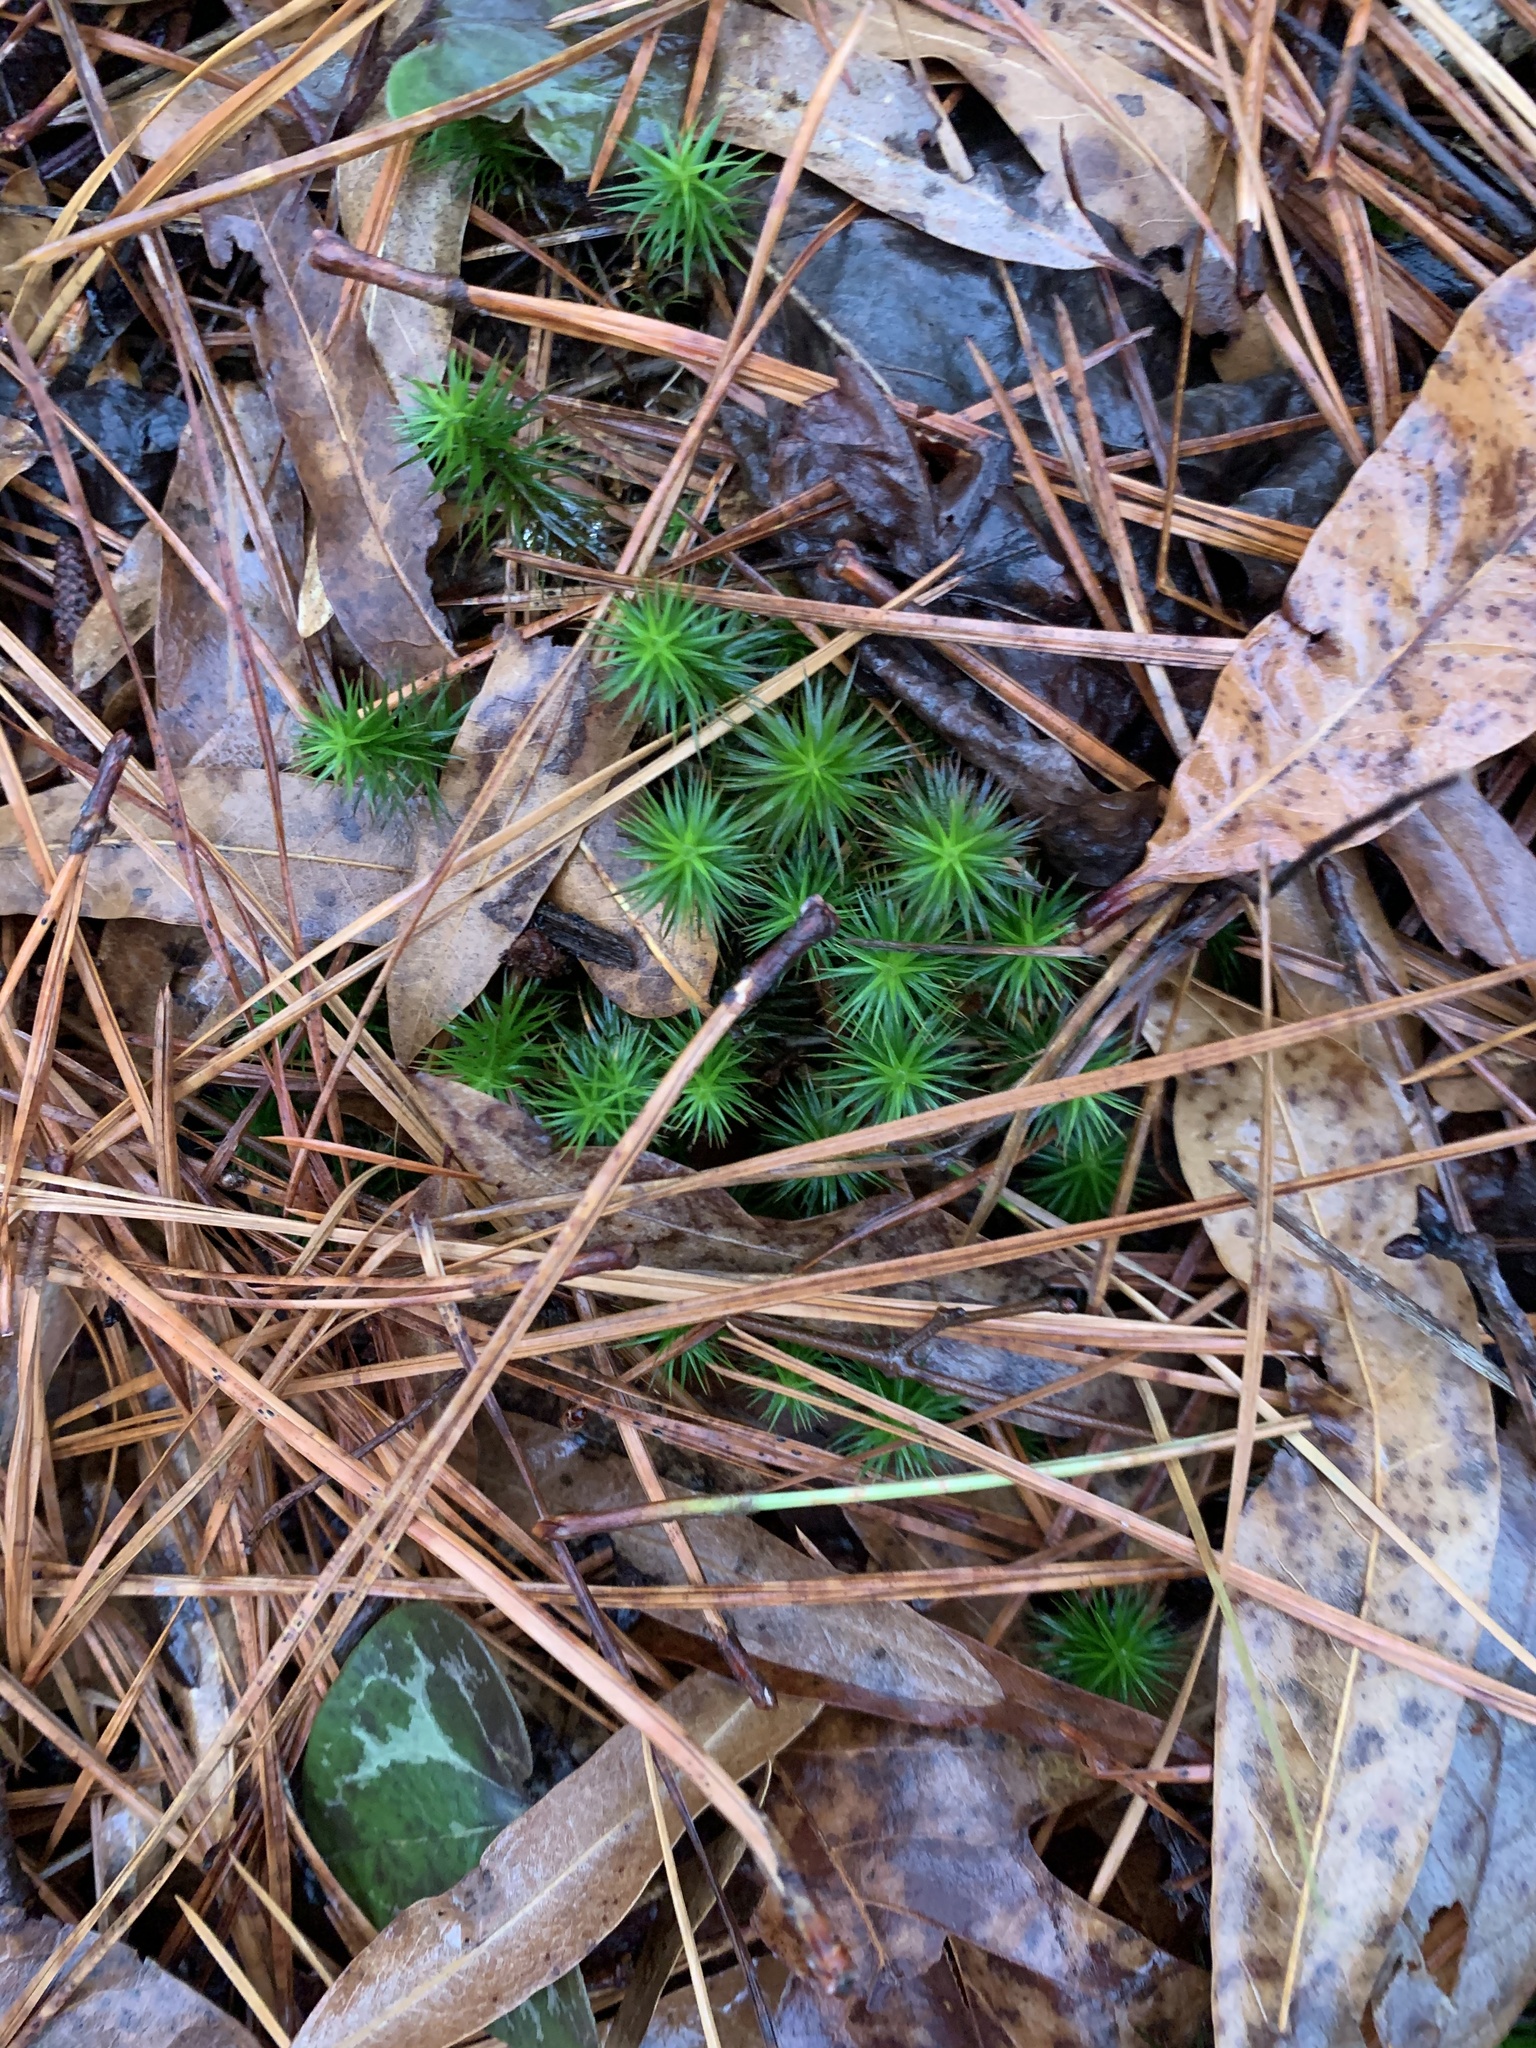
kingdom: Plantae
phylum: Bryophyta
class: Polytrichopsida
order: Polytrichales
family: Polytrichaceae
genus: Polytrichum
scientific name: Polytrichum juniperinum
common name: Juniper haircap moss
